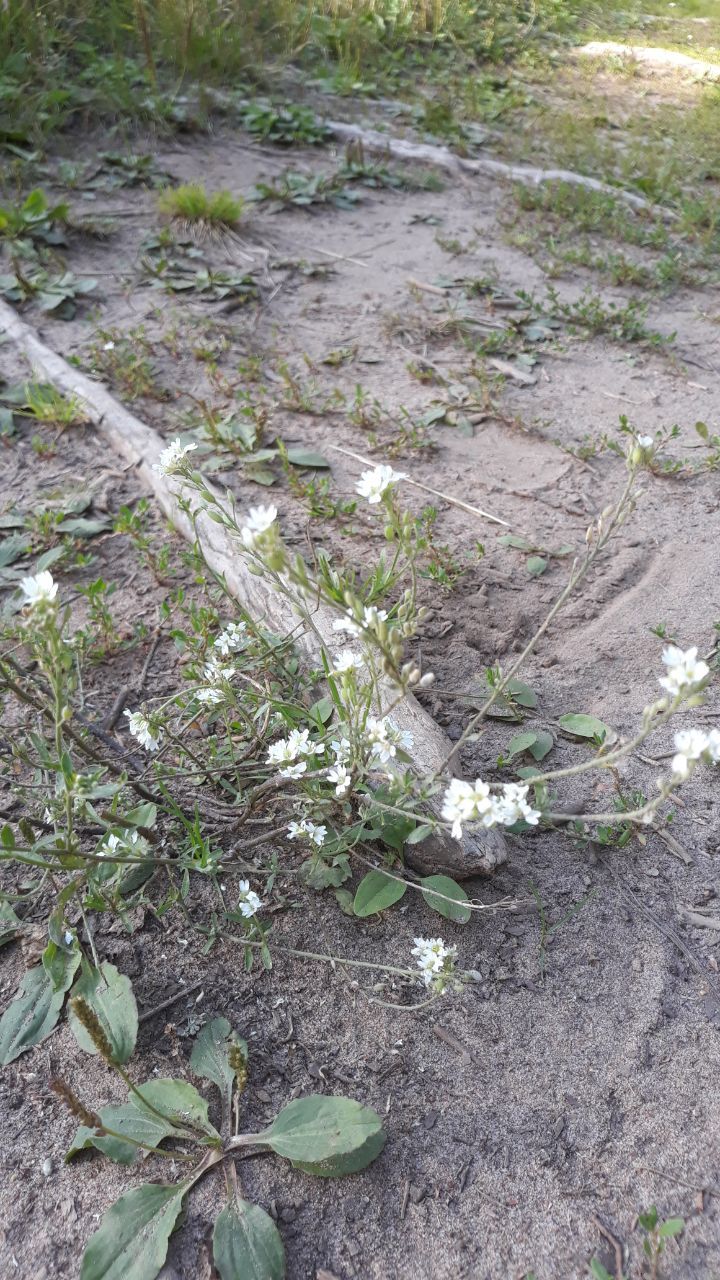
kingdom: Plantae
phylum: Tracheophyta
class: Magnoliopsida
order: Brassicales
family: Brassicaceae
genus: Berteroa
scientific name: Berteroa incana
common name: Hoary alison
